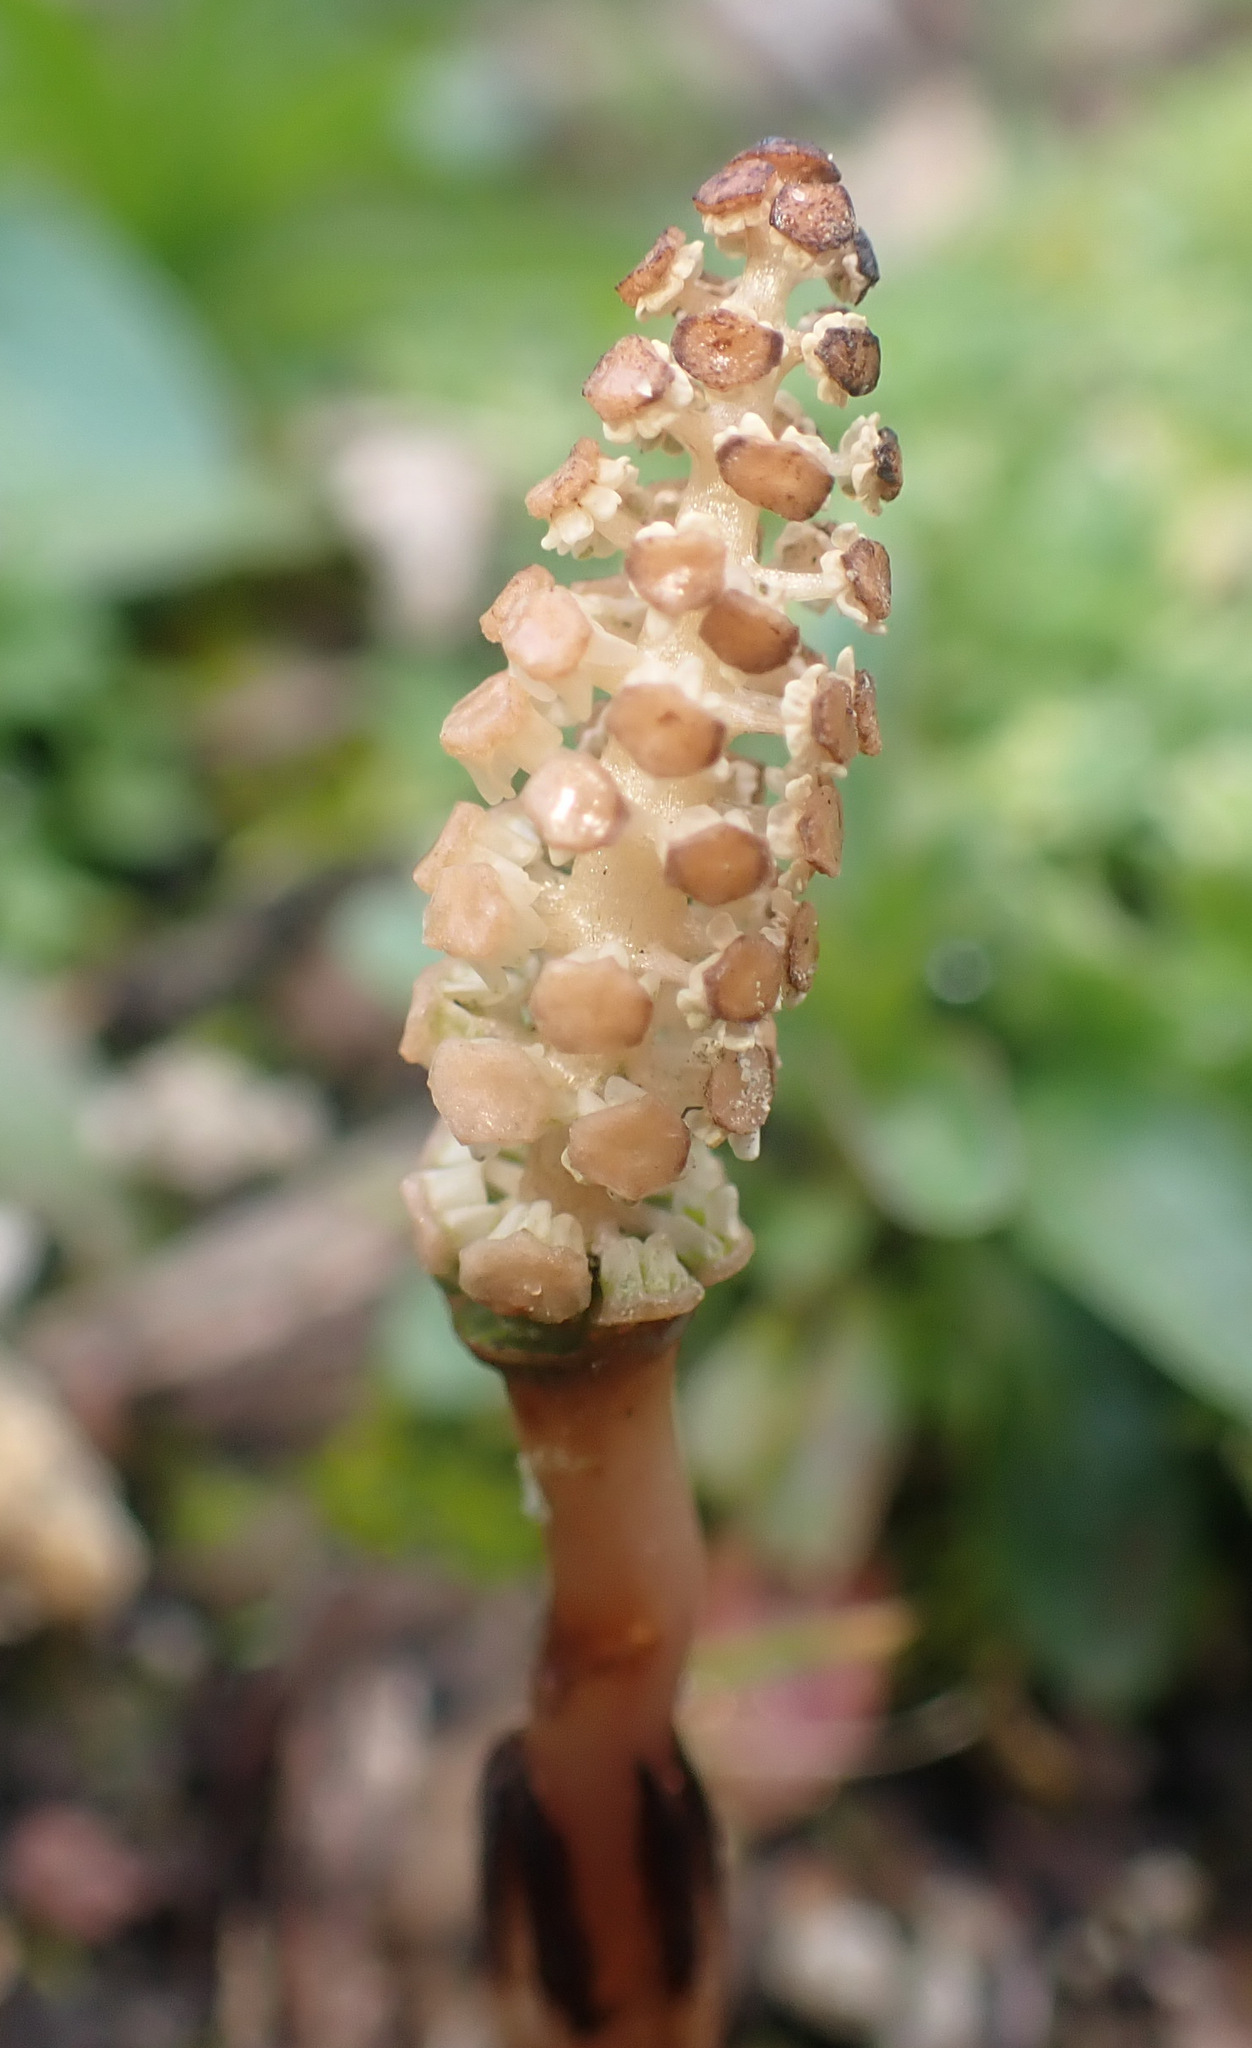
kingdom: Plantae
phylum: Tracheophyta
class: Polypodiopsida
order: Equisetales
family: Equisetaceae
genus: Equisetum
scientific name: Equisetum arvense
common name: Field horsetail
